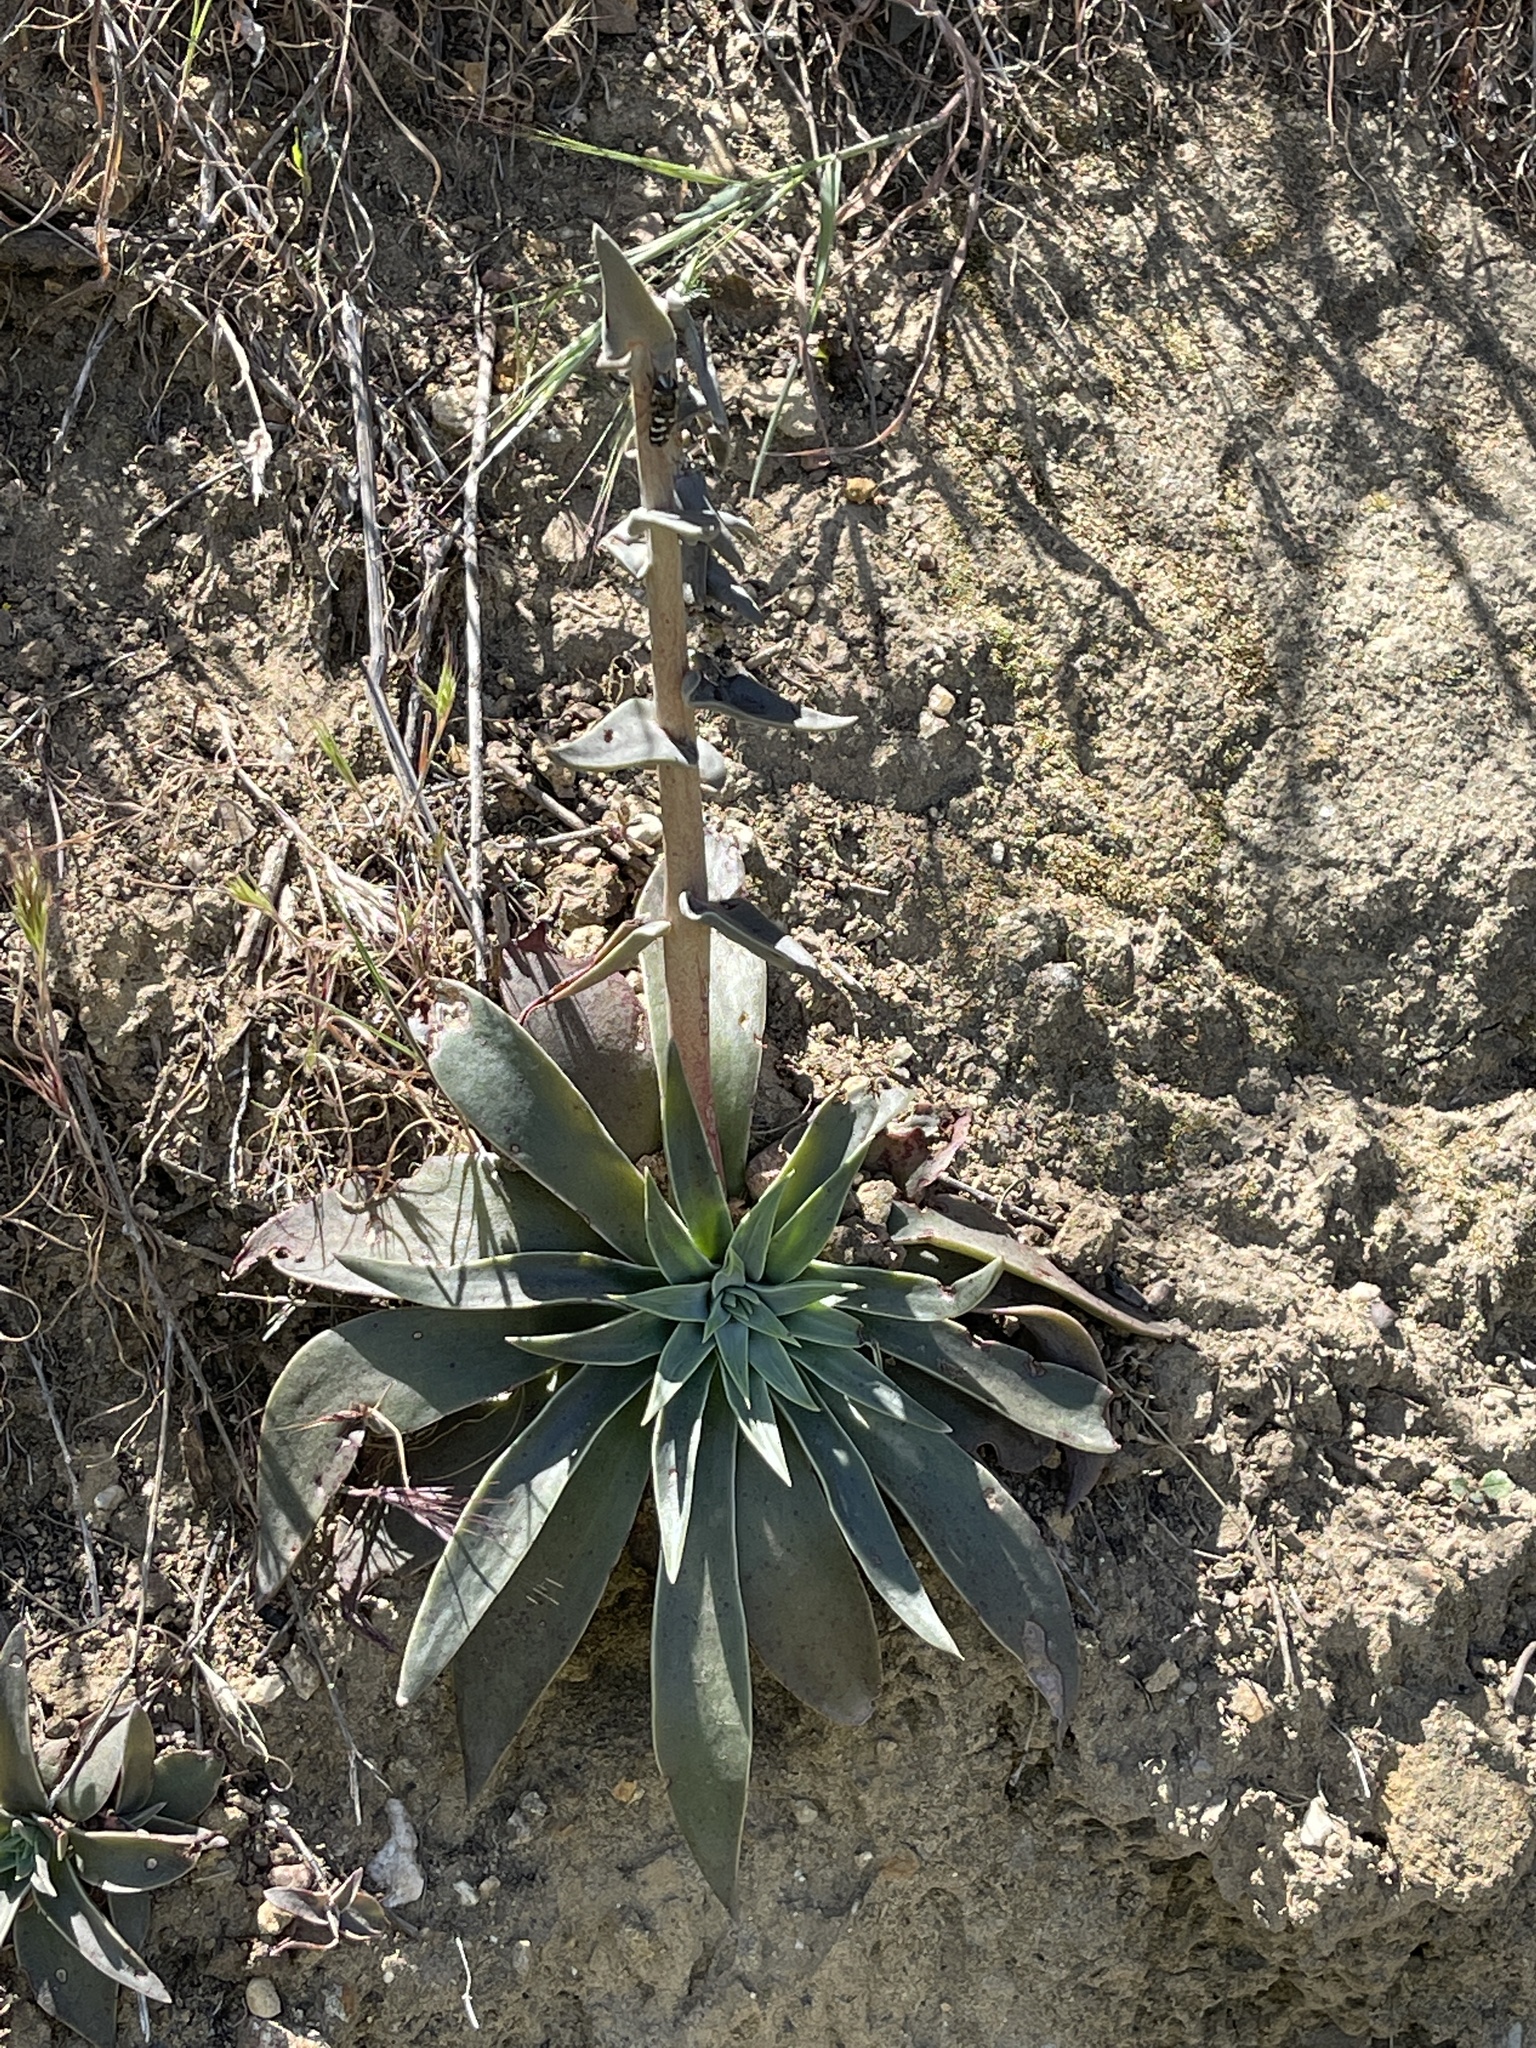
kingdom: Plantae
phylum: Tracheophyta
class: Magnoliopsida
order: Saxifragales
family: Crassulaceae
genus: Dudleya
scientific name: Dudleya lanceolata
